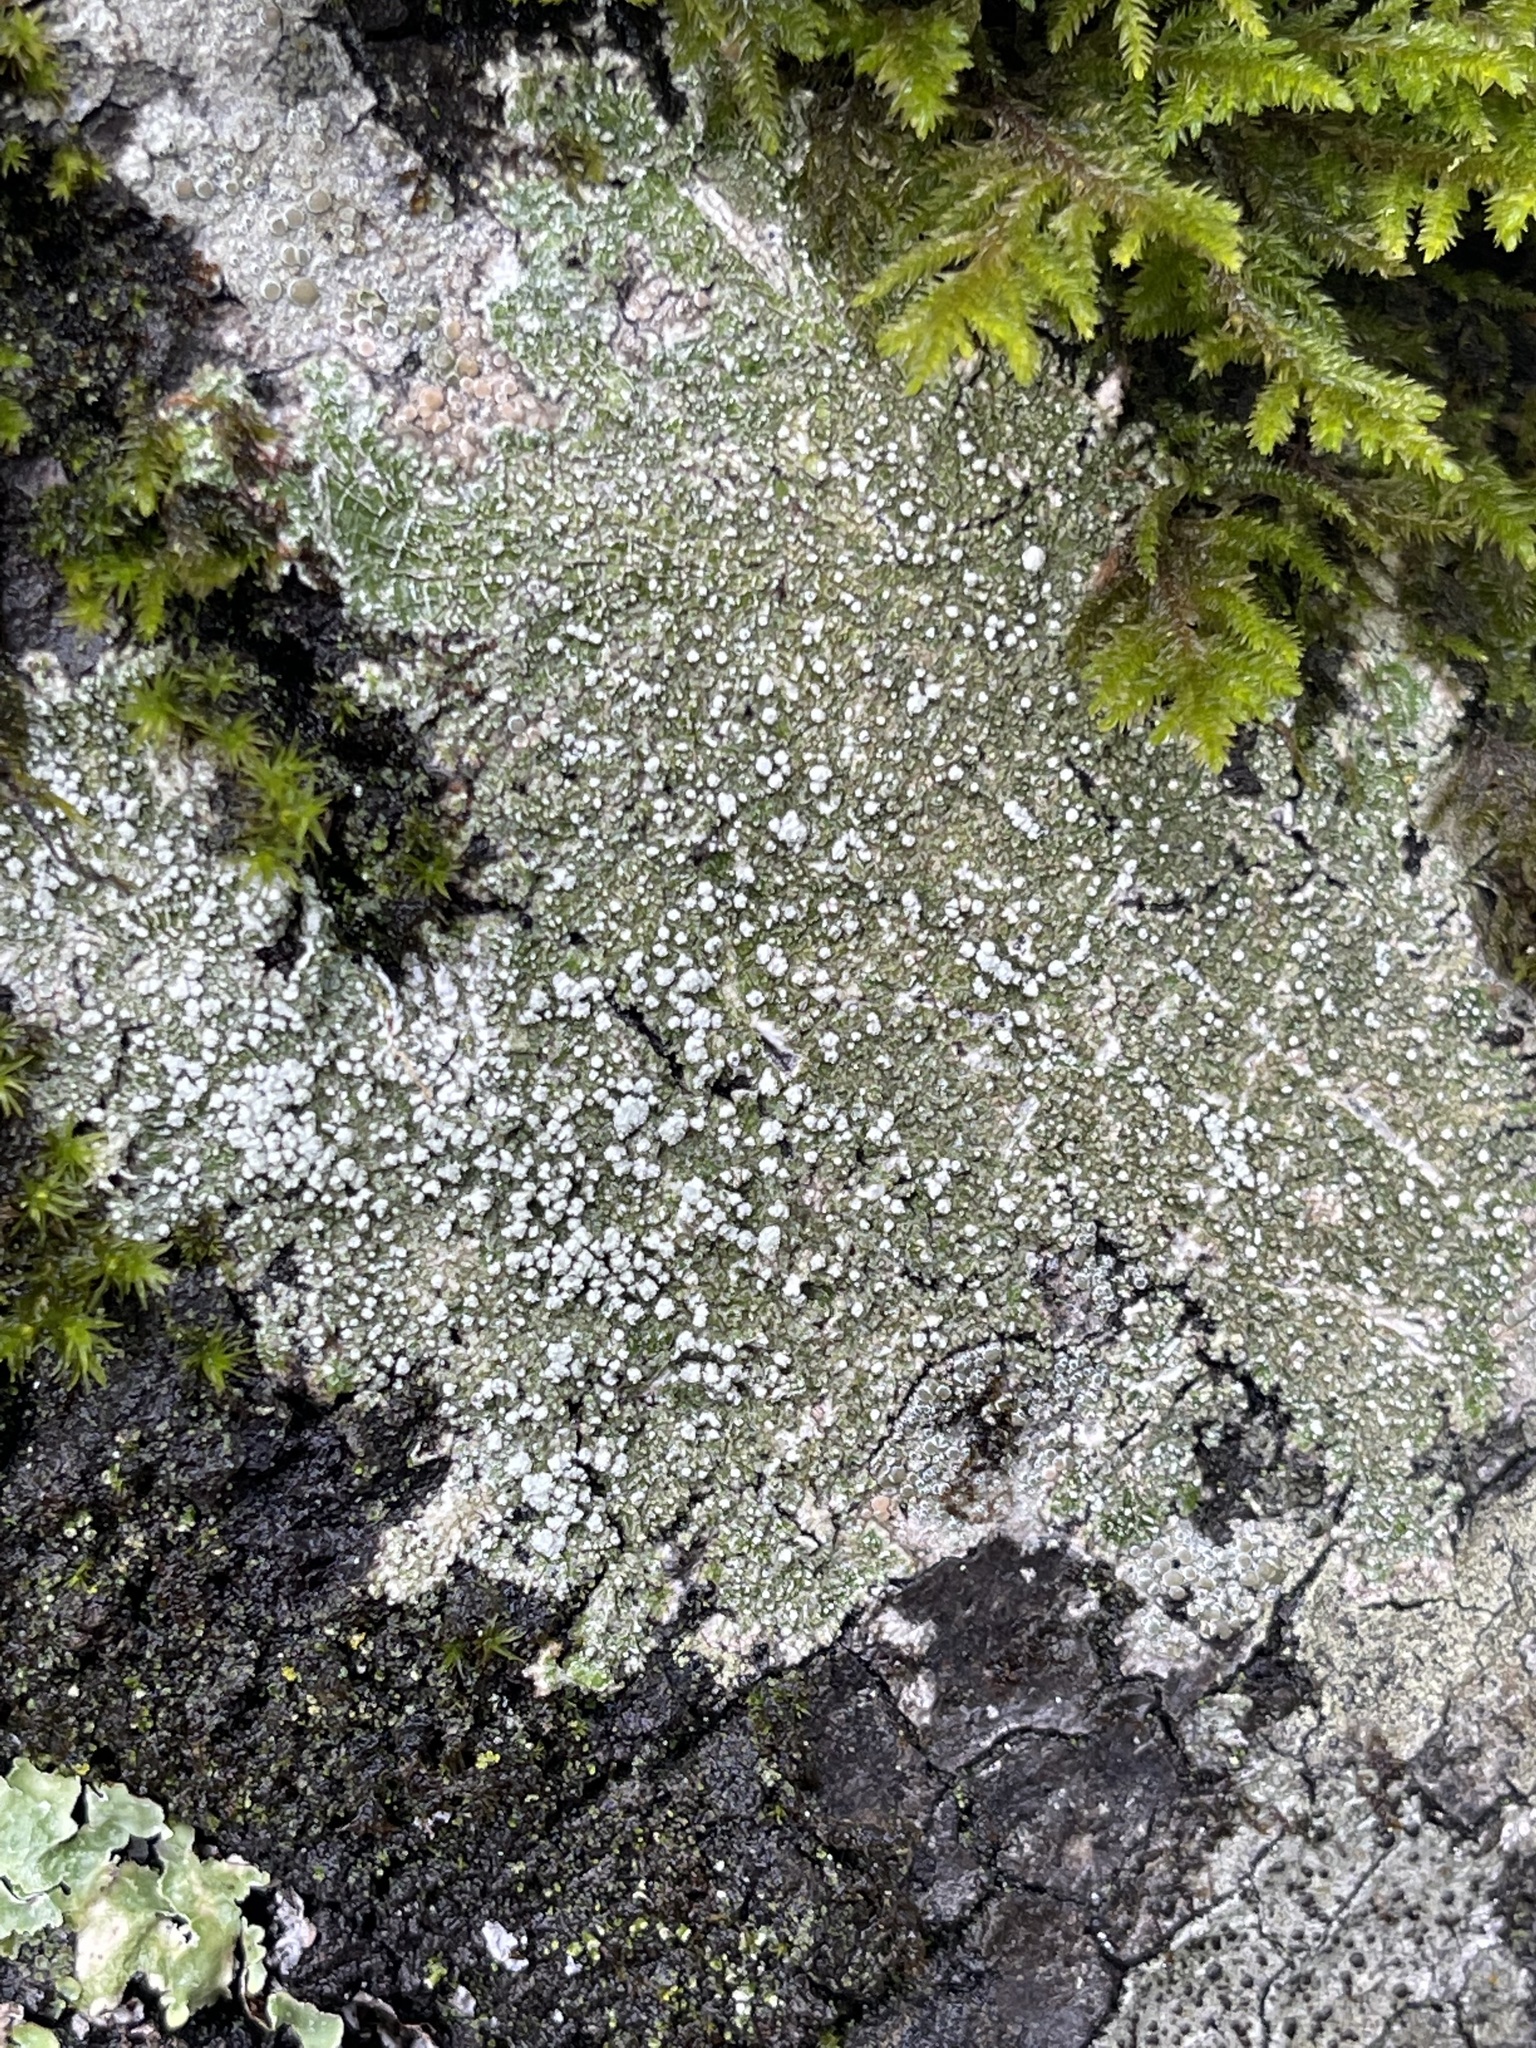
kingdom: Fungi
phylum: Ascomycota
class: Lecanoromycetes
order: Pertusariales
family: Pertusariaceae
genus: Lepra
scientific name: Lepra amara
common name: Bitter wart lichen
